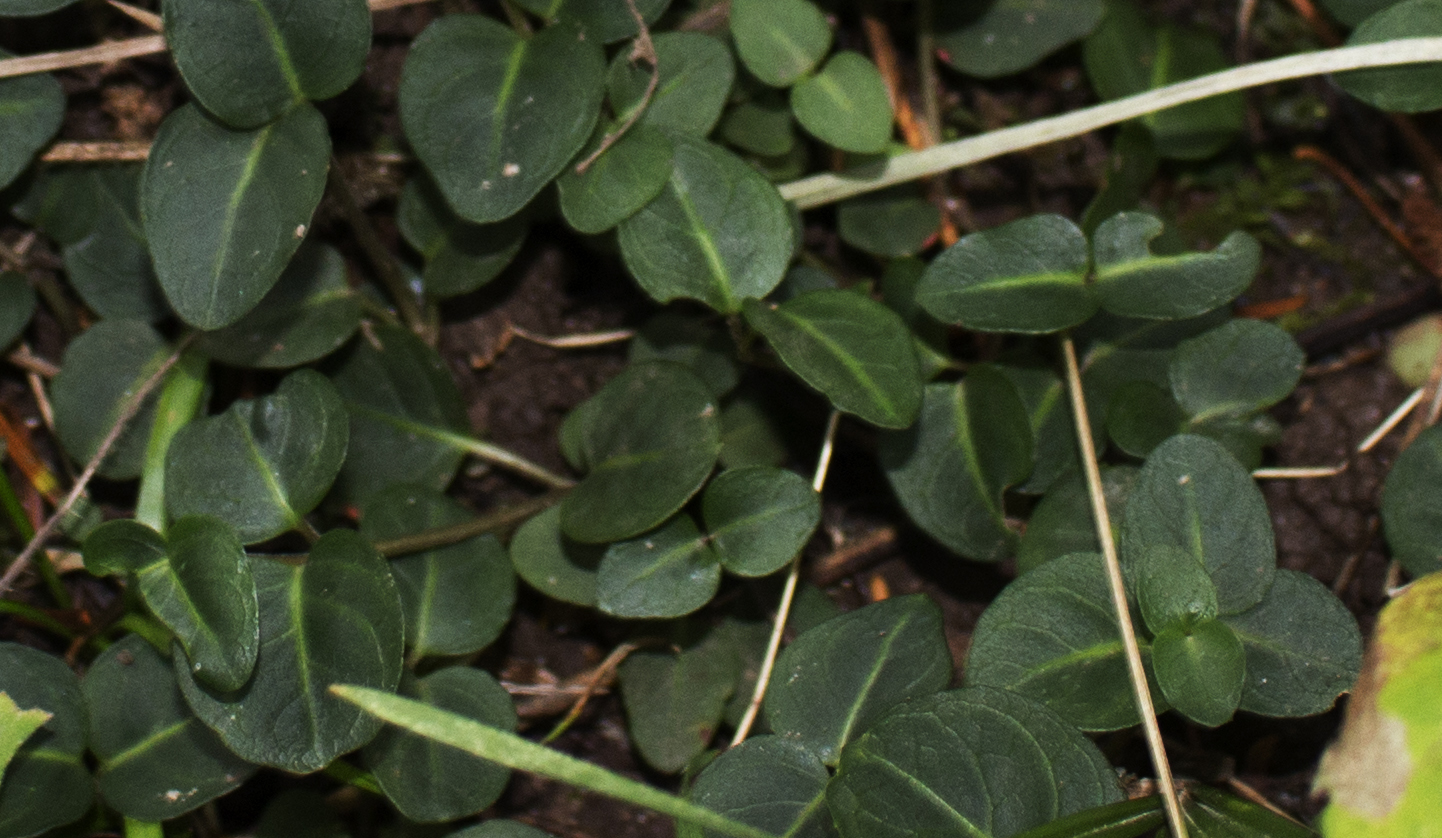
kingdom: Plantae
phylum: Tracheophyta
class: Magnoliopsida
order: Gentianales
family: Rubiaceae
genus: Mitchella
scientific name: Mitchella repens
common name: Partridge-berry
